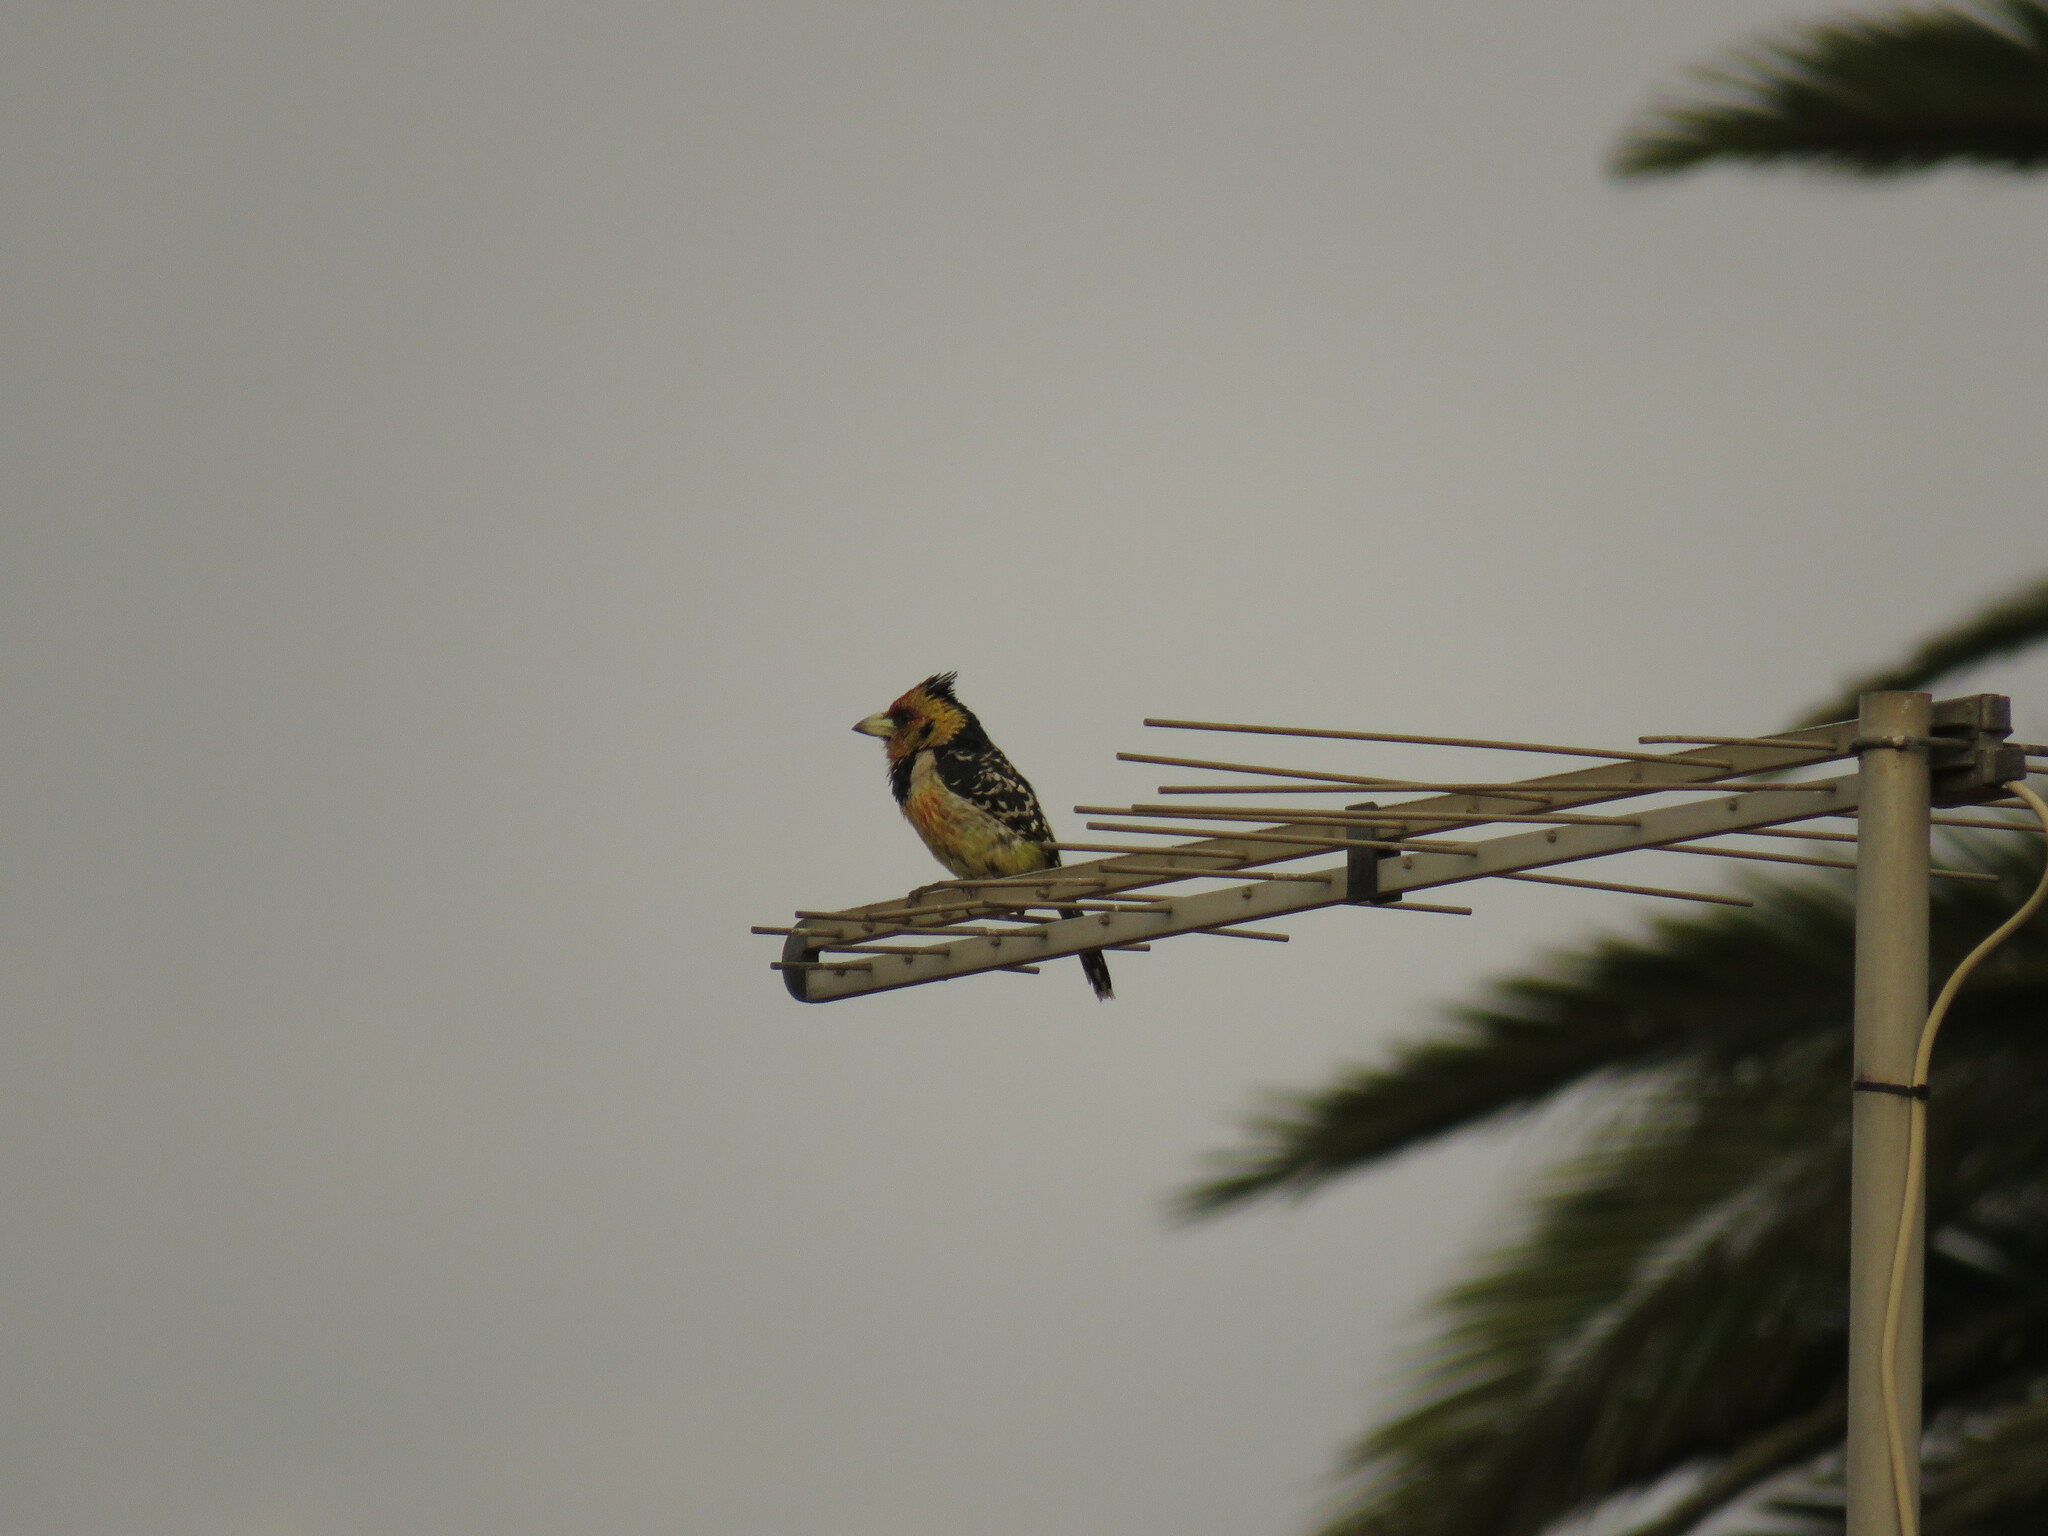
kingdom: Animalia
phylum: Chordata
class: Aves
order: Piciformes
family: Lybiidae
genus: Trachyphonus
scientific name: Trachyphonus vaillantii
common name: Crested barbet
